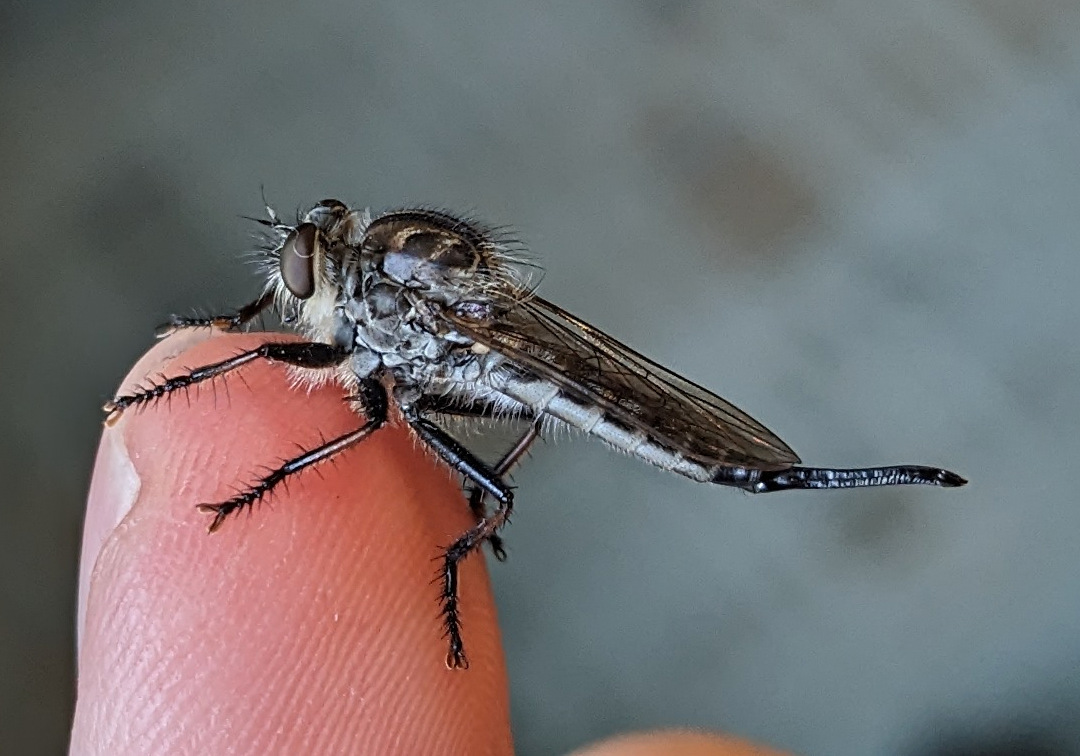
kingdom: Animalia
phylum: Arthropoda
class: Insecta
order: Diptera
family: Asilidae
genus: Efferia
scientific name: Efferia aestuans
